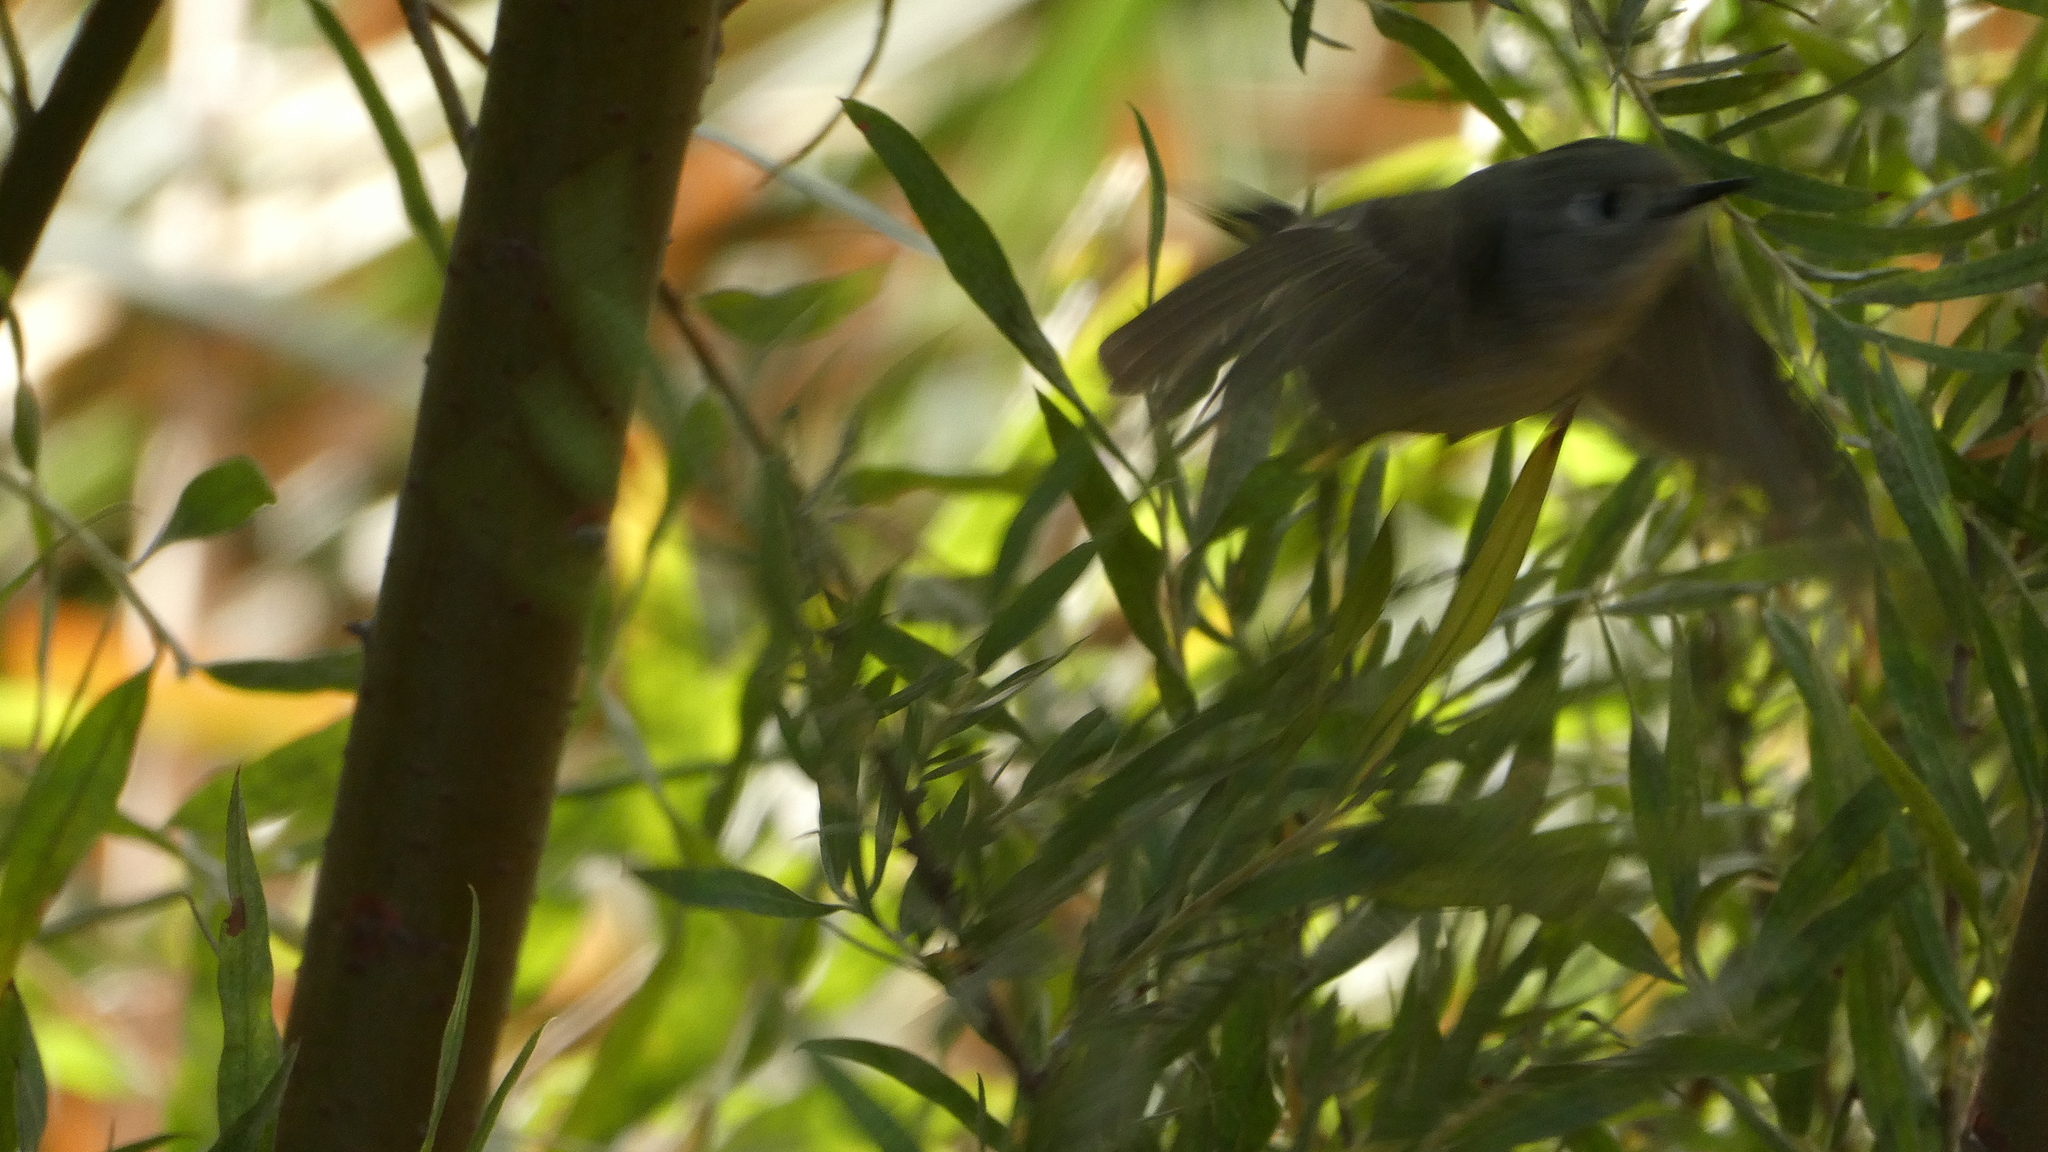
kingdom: Animalia
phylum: Chordata
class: Aves
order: Passeriformes
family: Regulidae
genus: Regulus
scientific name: Regulus calendula
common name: Ruby-crowned kinglet
